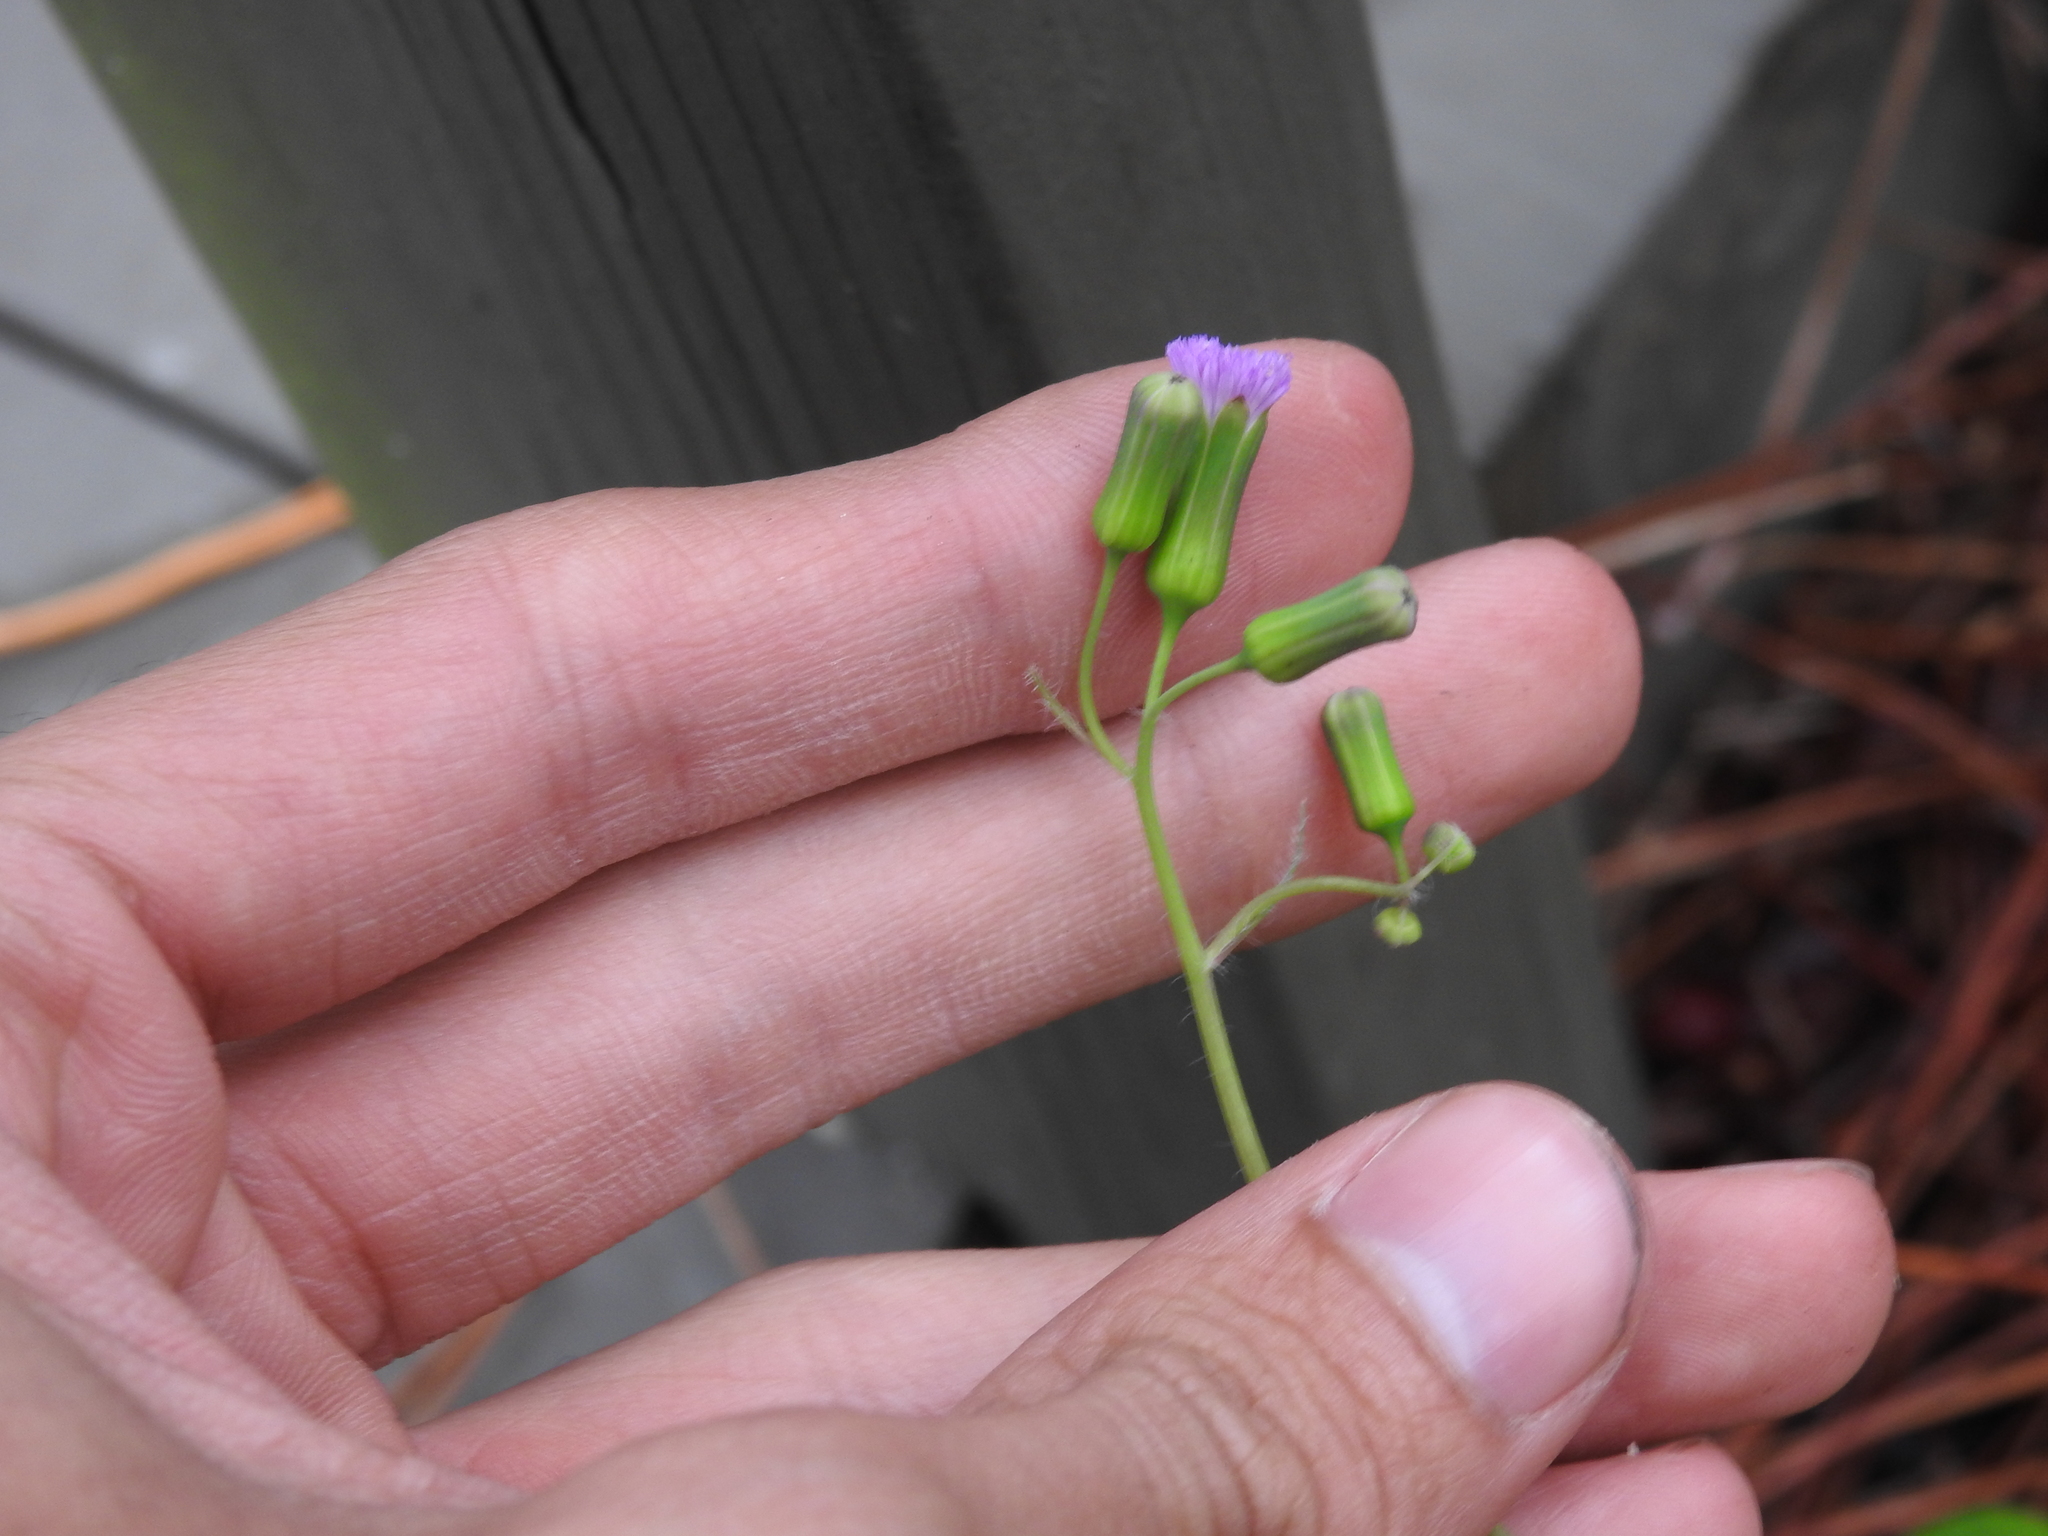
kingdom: Plantae
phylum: Tracheophyta
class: Magnoliopsida
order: Asterales
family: Asteraceae
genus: Emilia
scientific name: Emilia sonchifolia
